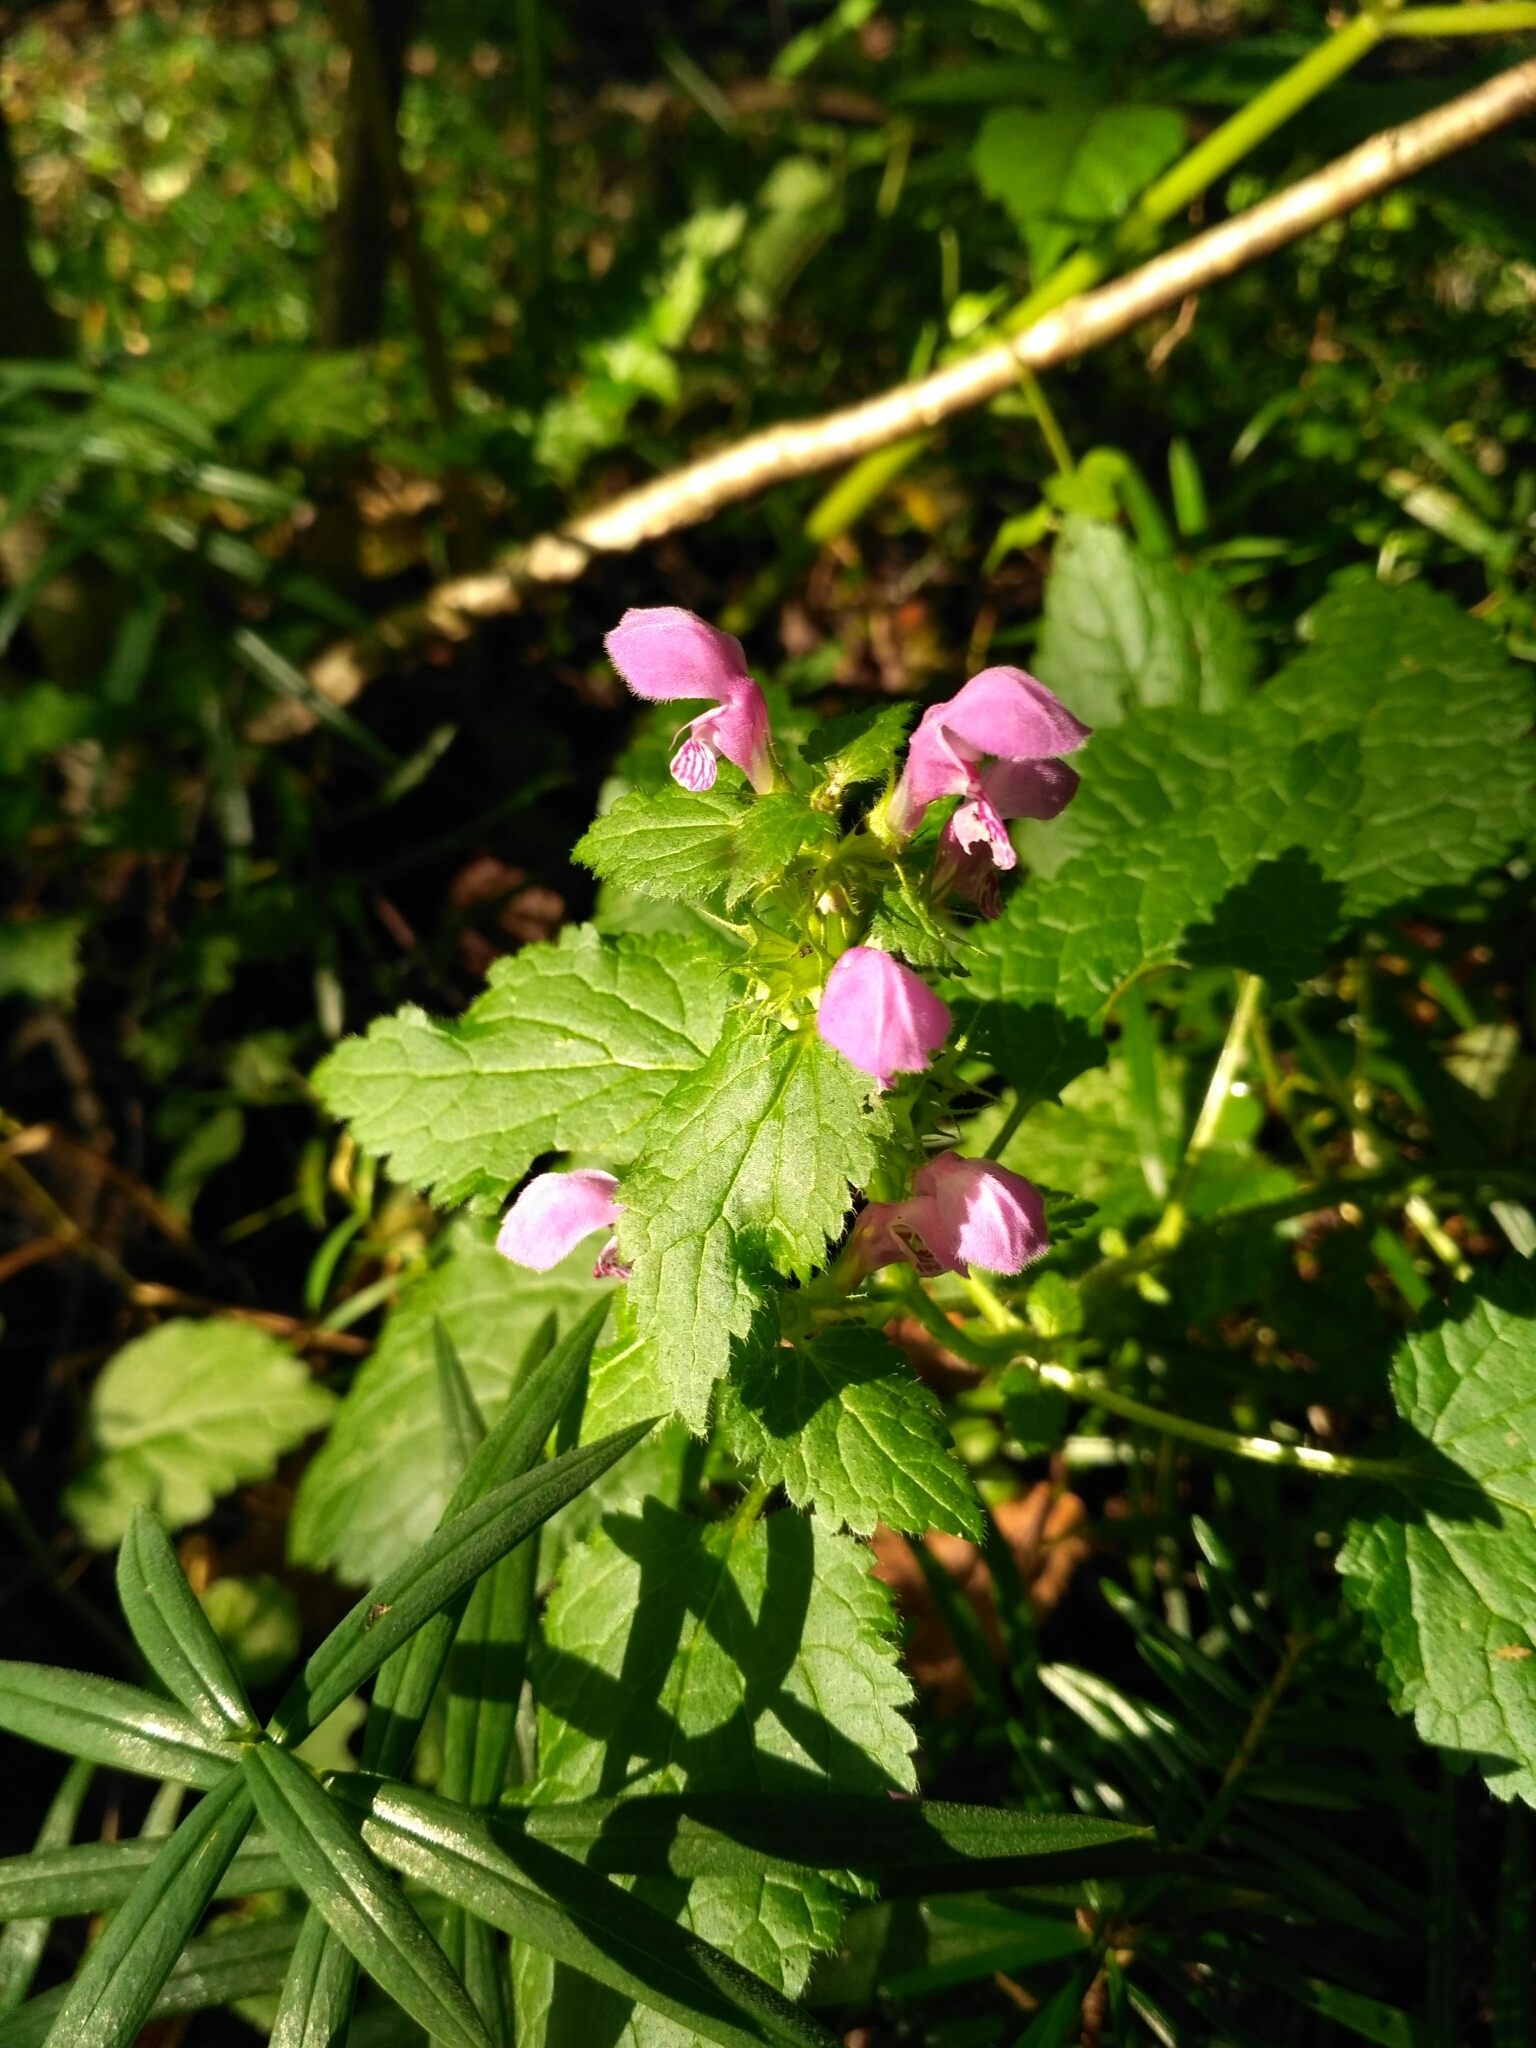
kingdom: Plantae
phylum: Tracheophyta
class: Magnoliopsida
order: Lamiales
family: Lamiaceae
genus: Lamium
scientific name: Lamium maculatum
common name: Spotted dead-nettle
